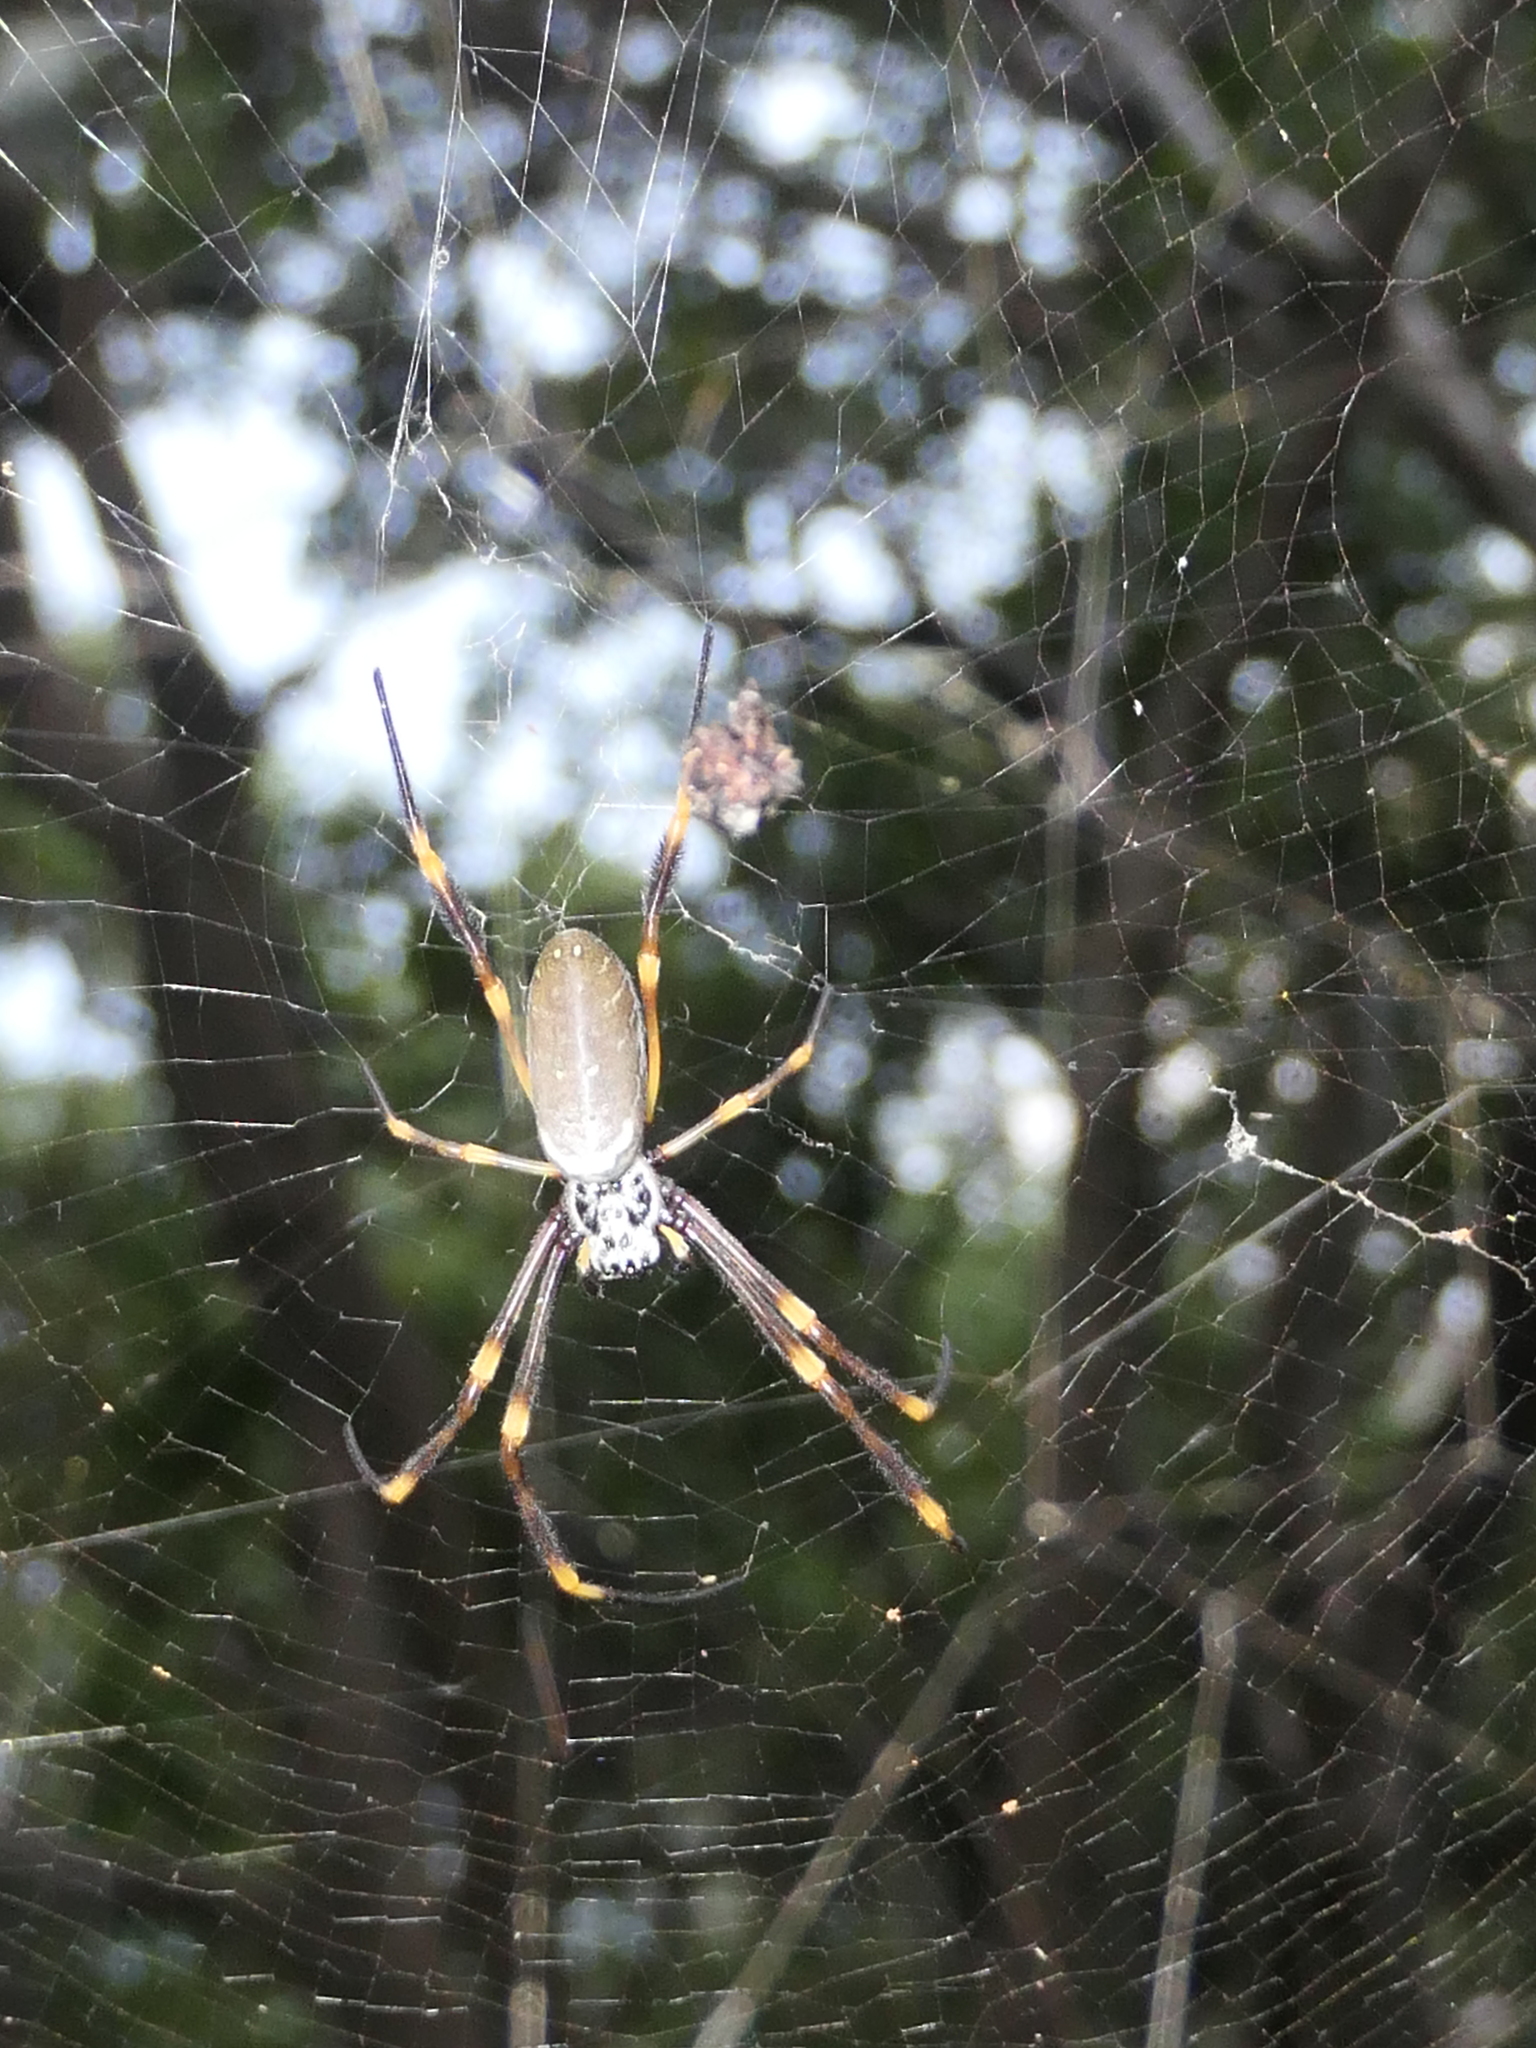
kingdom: Animalia
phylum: Arthropoda
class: Arachnida
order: Araneae
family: Araneidae
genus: Trichonephila
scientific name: Trichonephila plumipes
